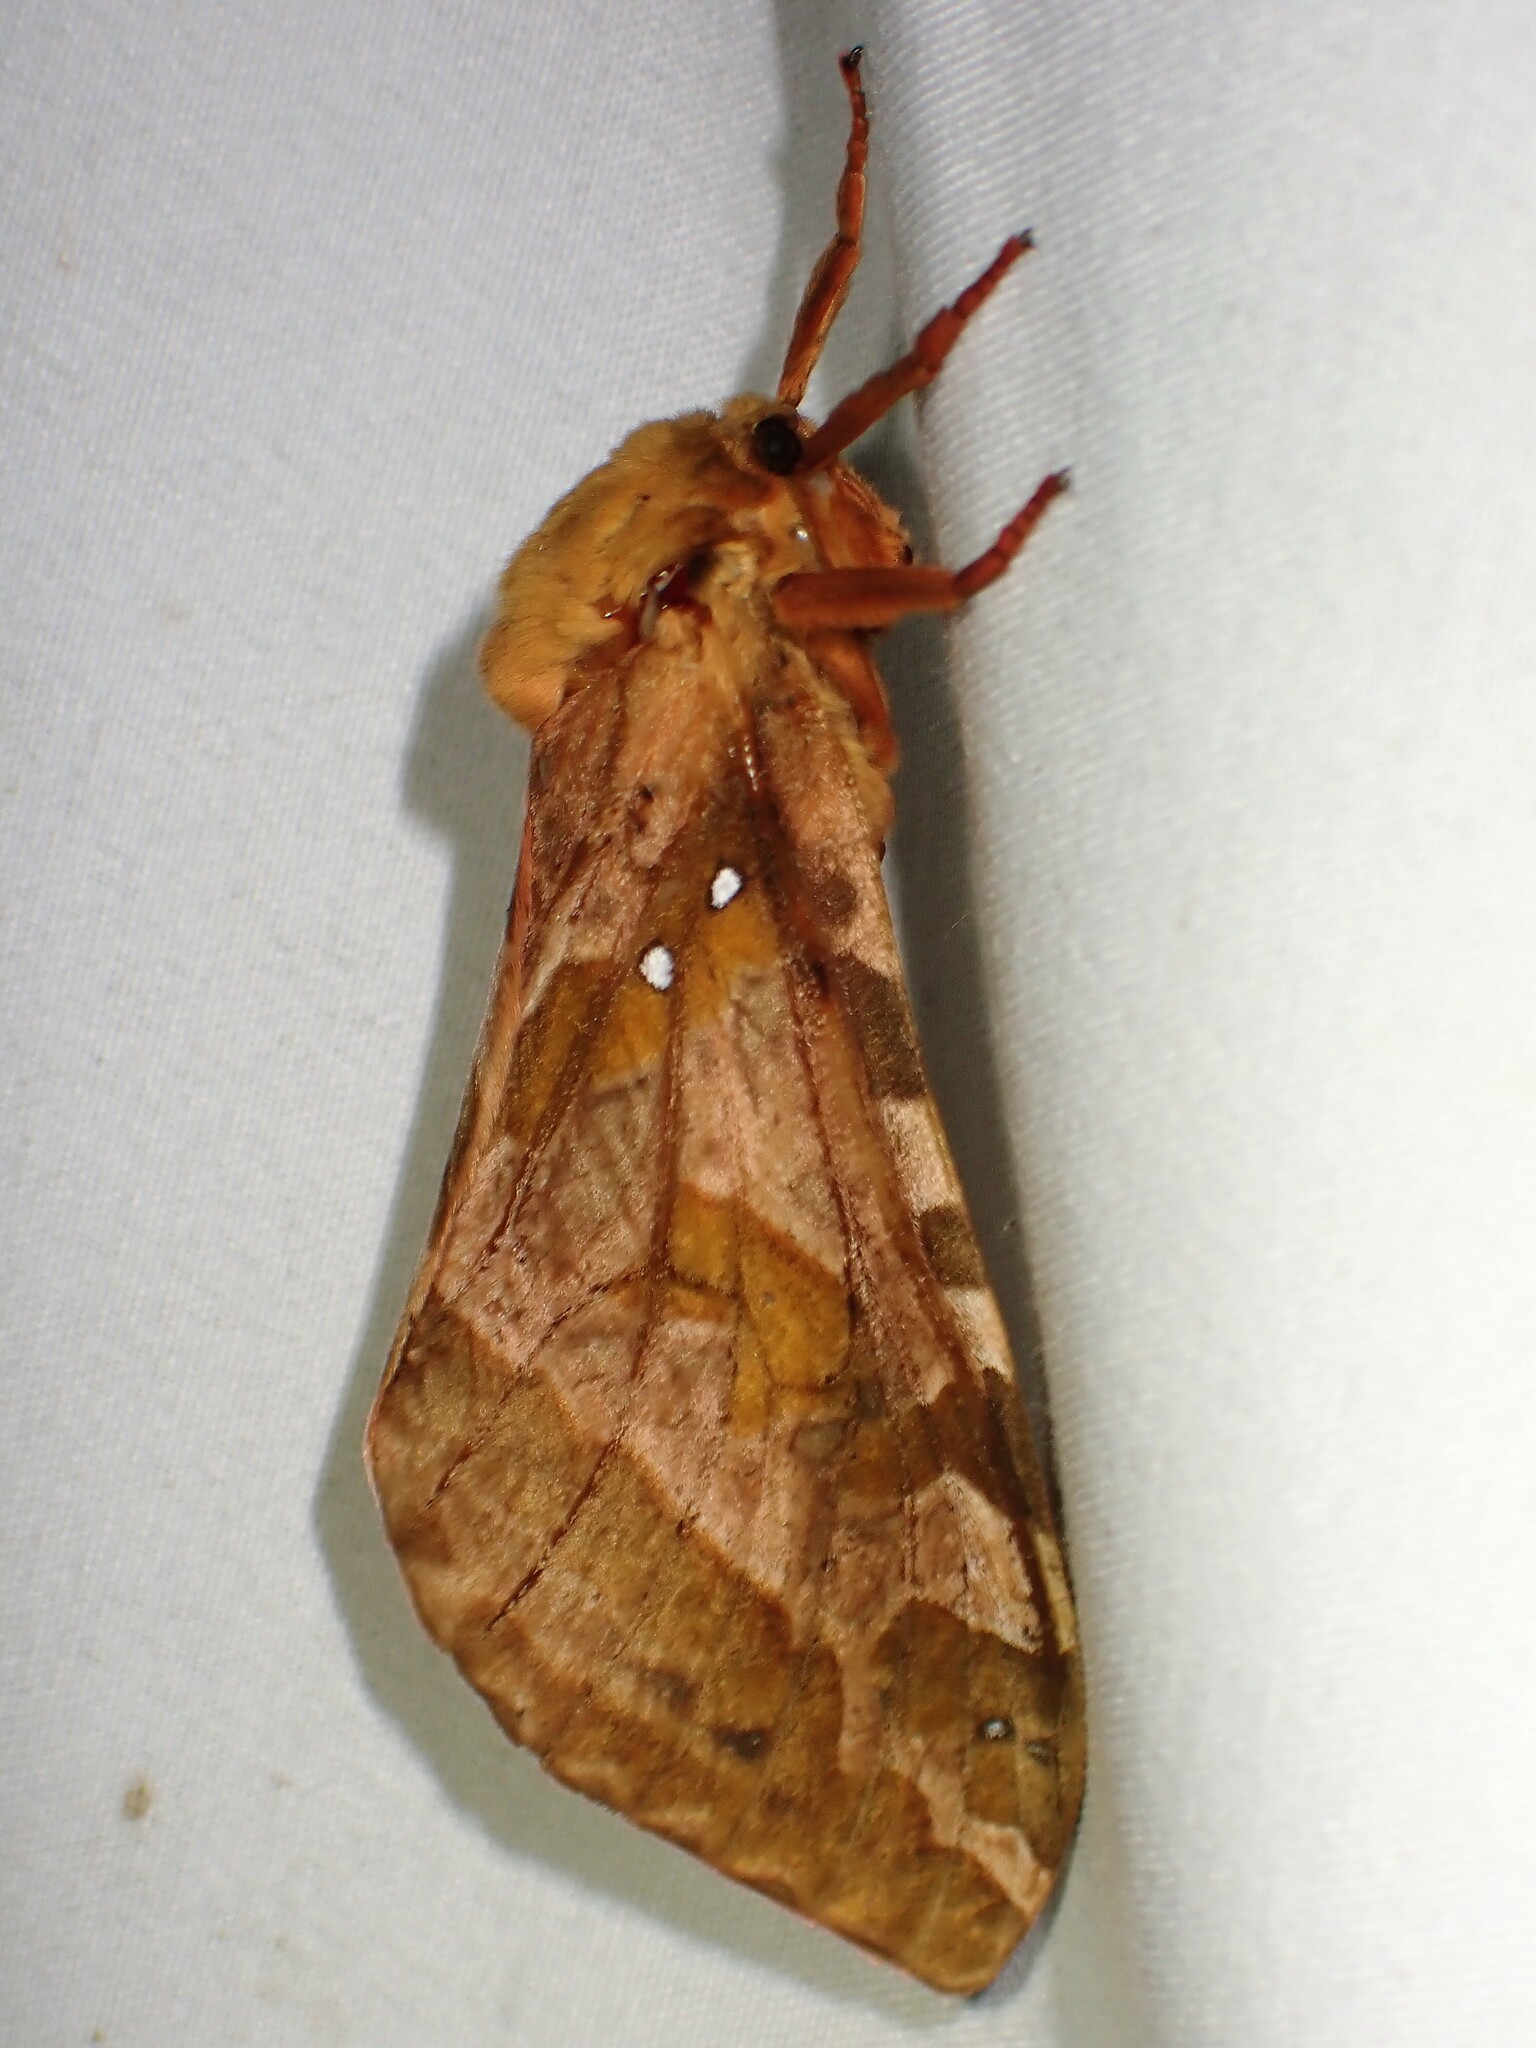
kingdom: Animalia
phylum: Arthropoda
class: Insecta
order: Lepidoptera
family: Hepialidae
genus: Sthenopis
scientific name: Sthenopis purpurascens
